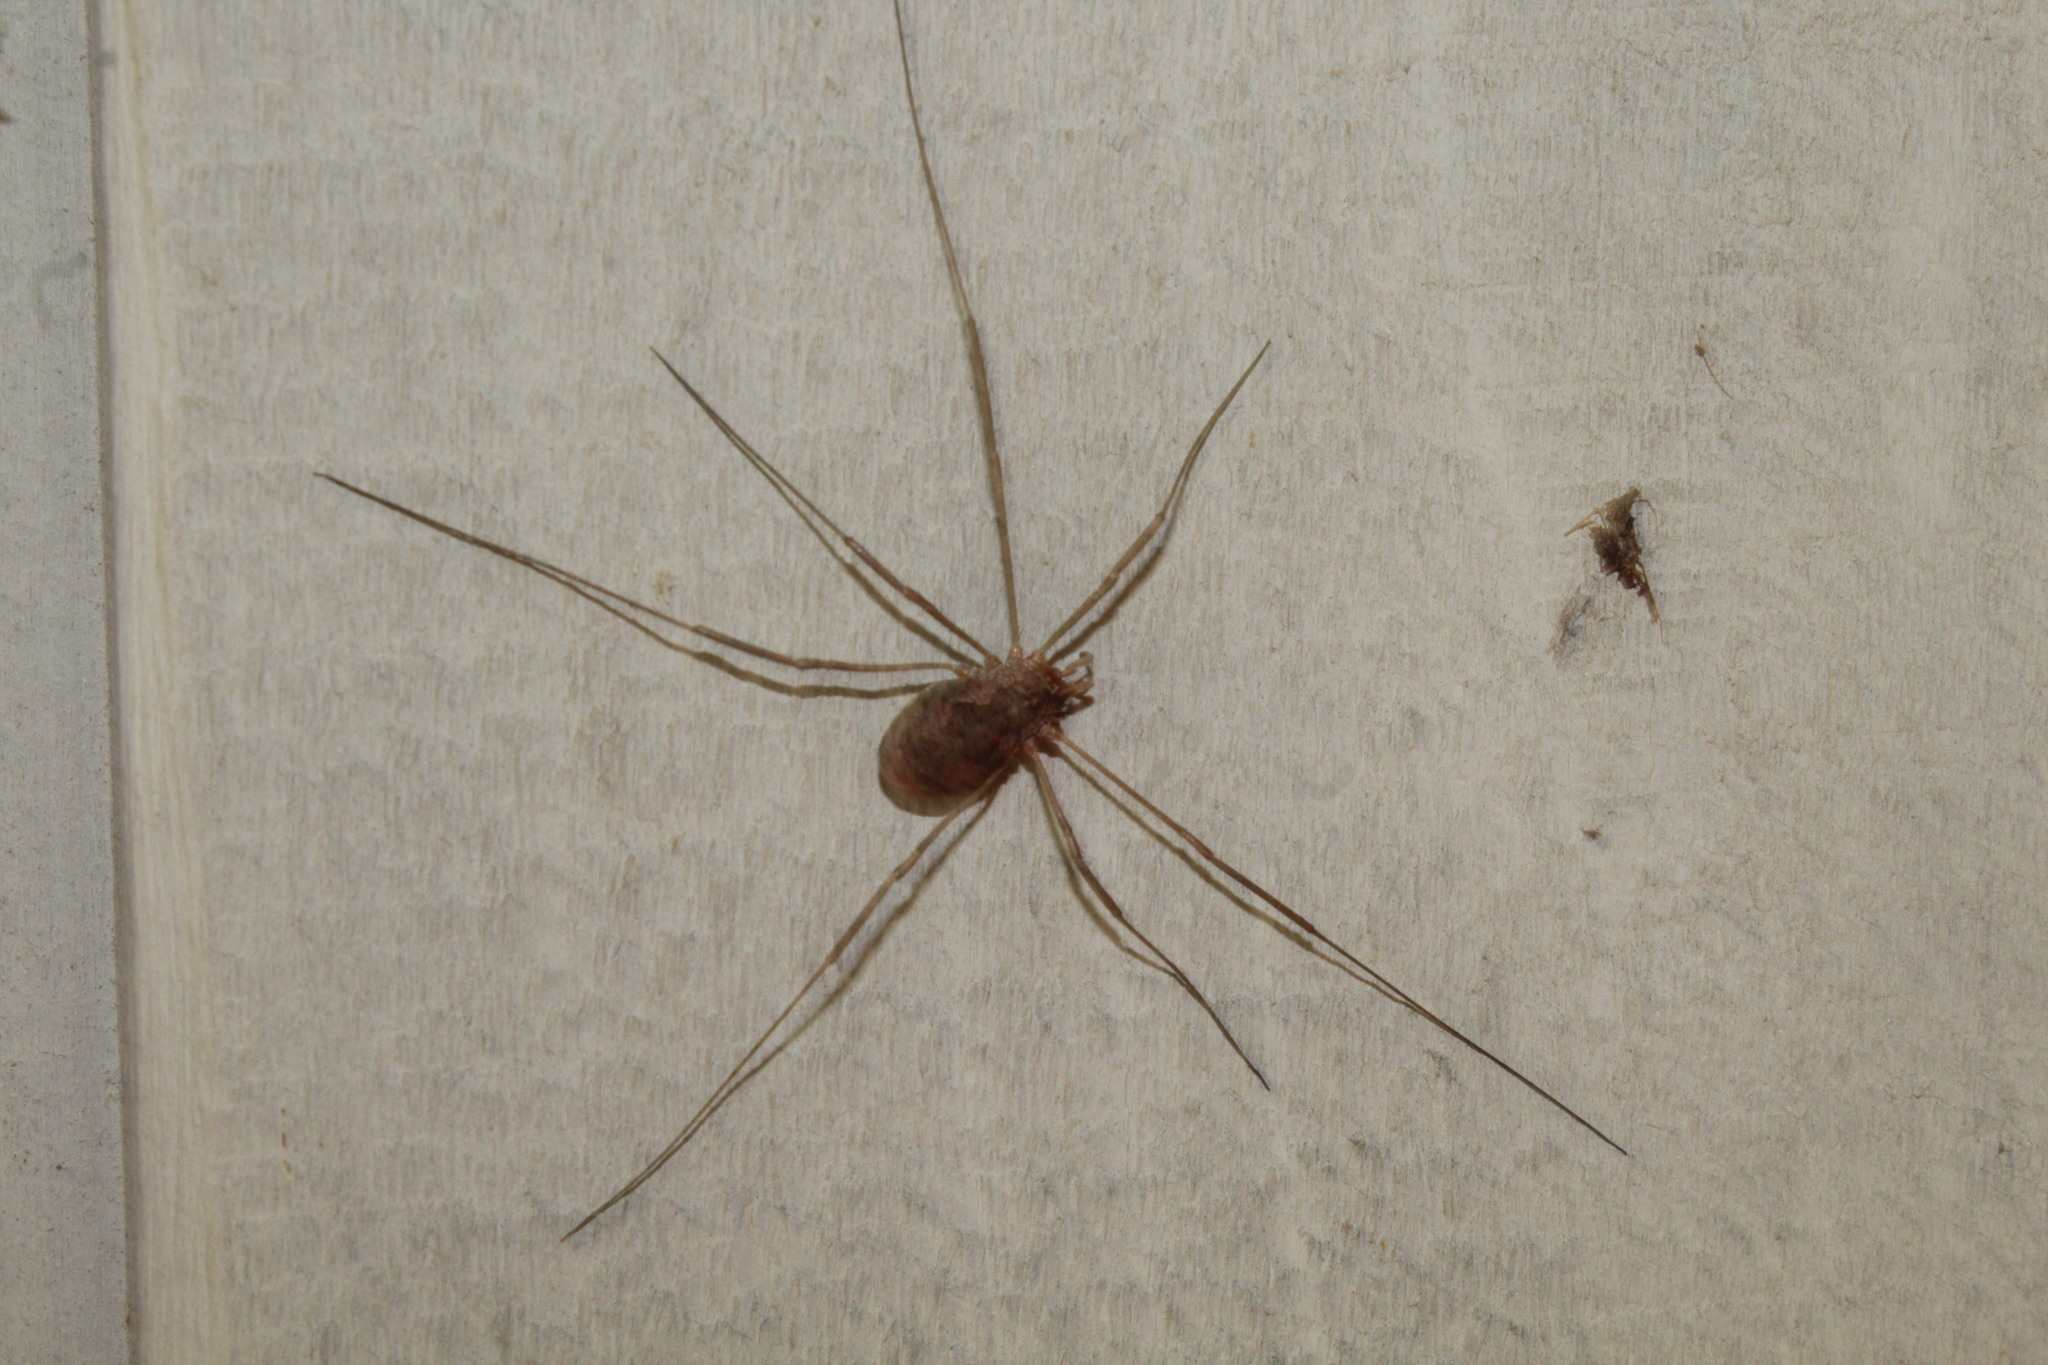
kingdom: Animalia
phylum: Arthropoda
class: Arachnida
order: Opiliones
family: Phalangiidae
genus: Phalangium
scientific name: Phalangium opilio
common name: Daddy longleg
